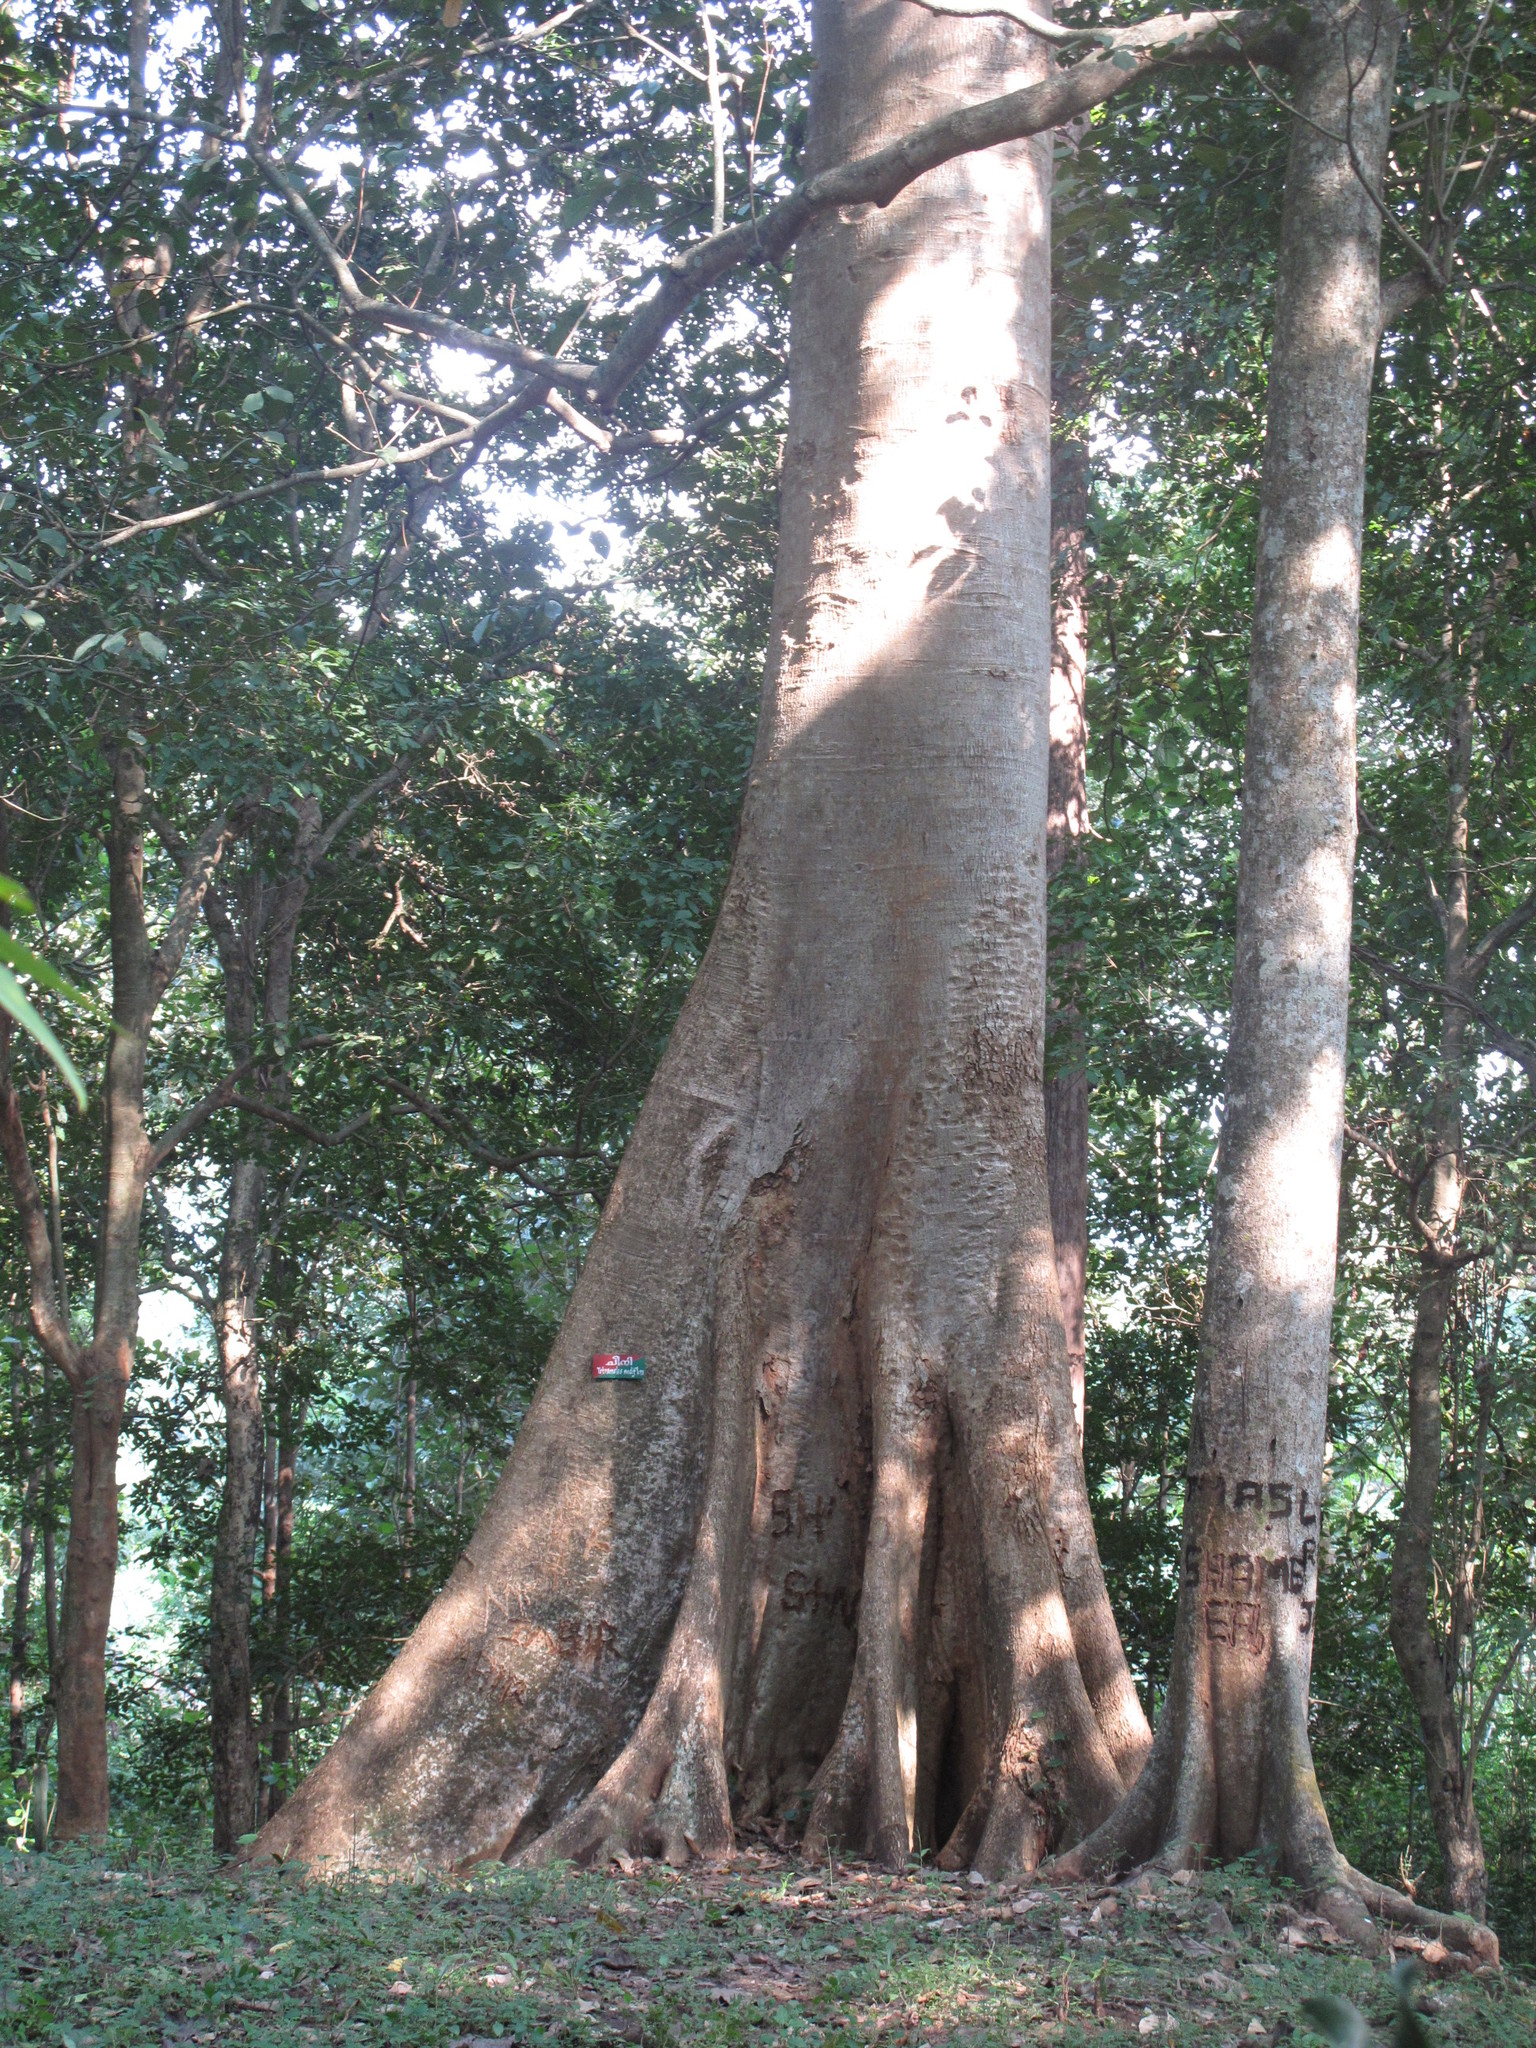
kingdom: Plantae
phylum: Tracheophyta
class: Magnoliopsida
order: Cucurbitales
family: Tetramelaceae
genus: Tetrameles
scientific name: Tetrameles nudiflora
